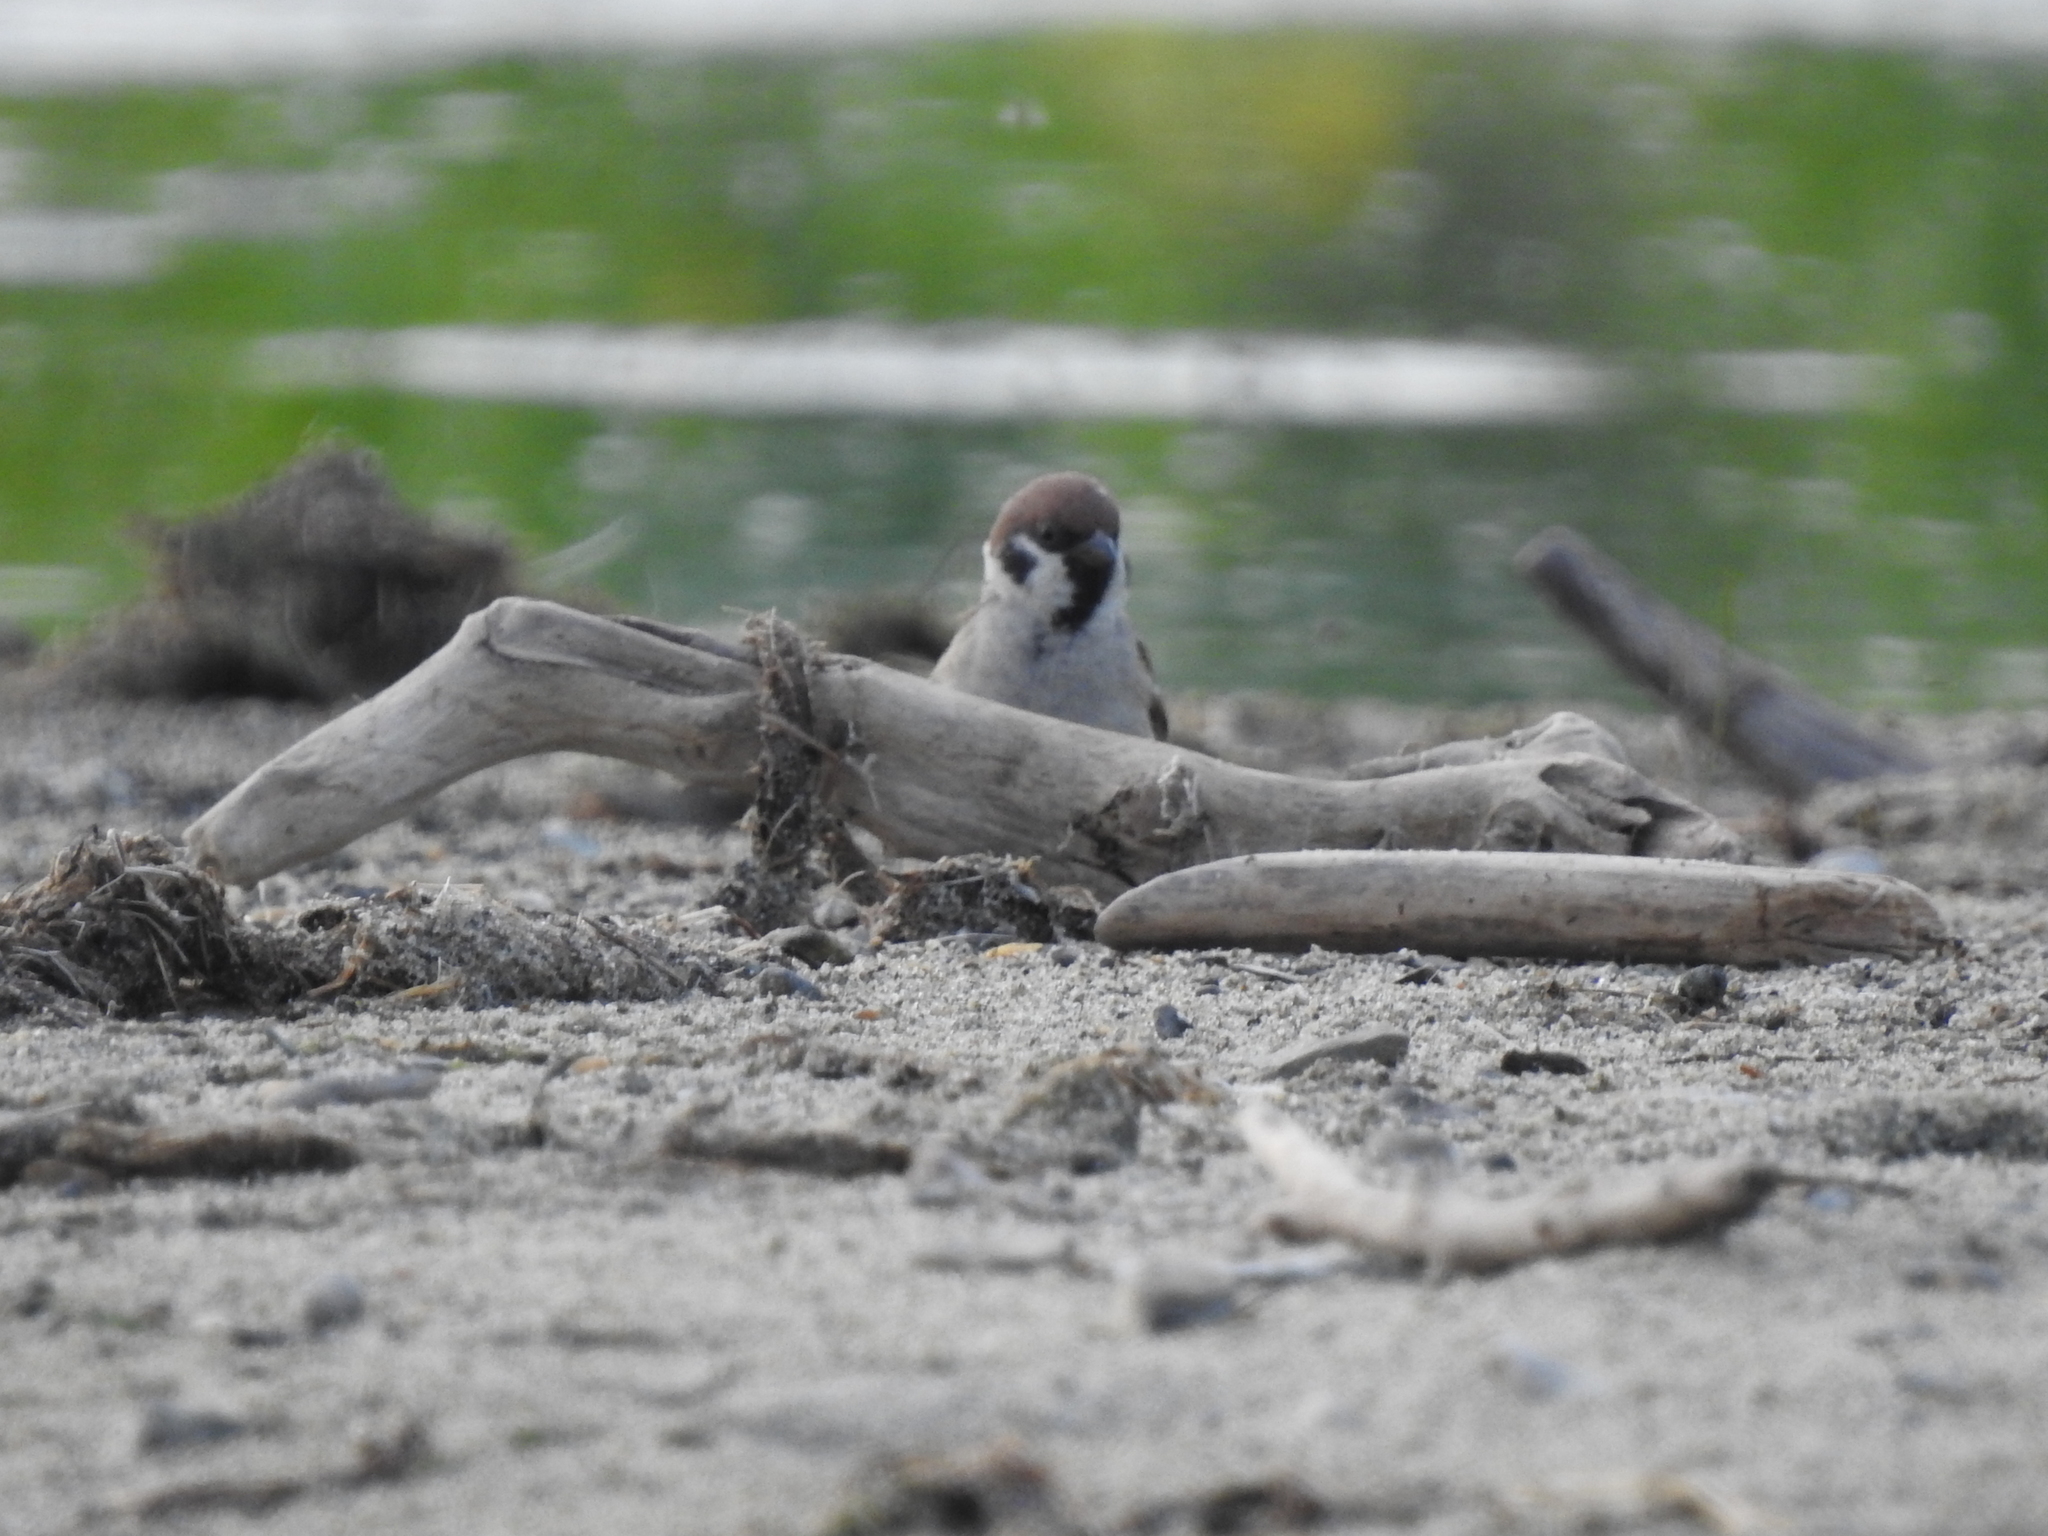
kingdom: Animalia
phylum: Chordata
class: Aves
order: Passeriformes
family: Passeridae
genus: Passer
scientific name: Passer montanus
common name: Eurasian tree sparrow
